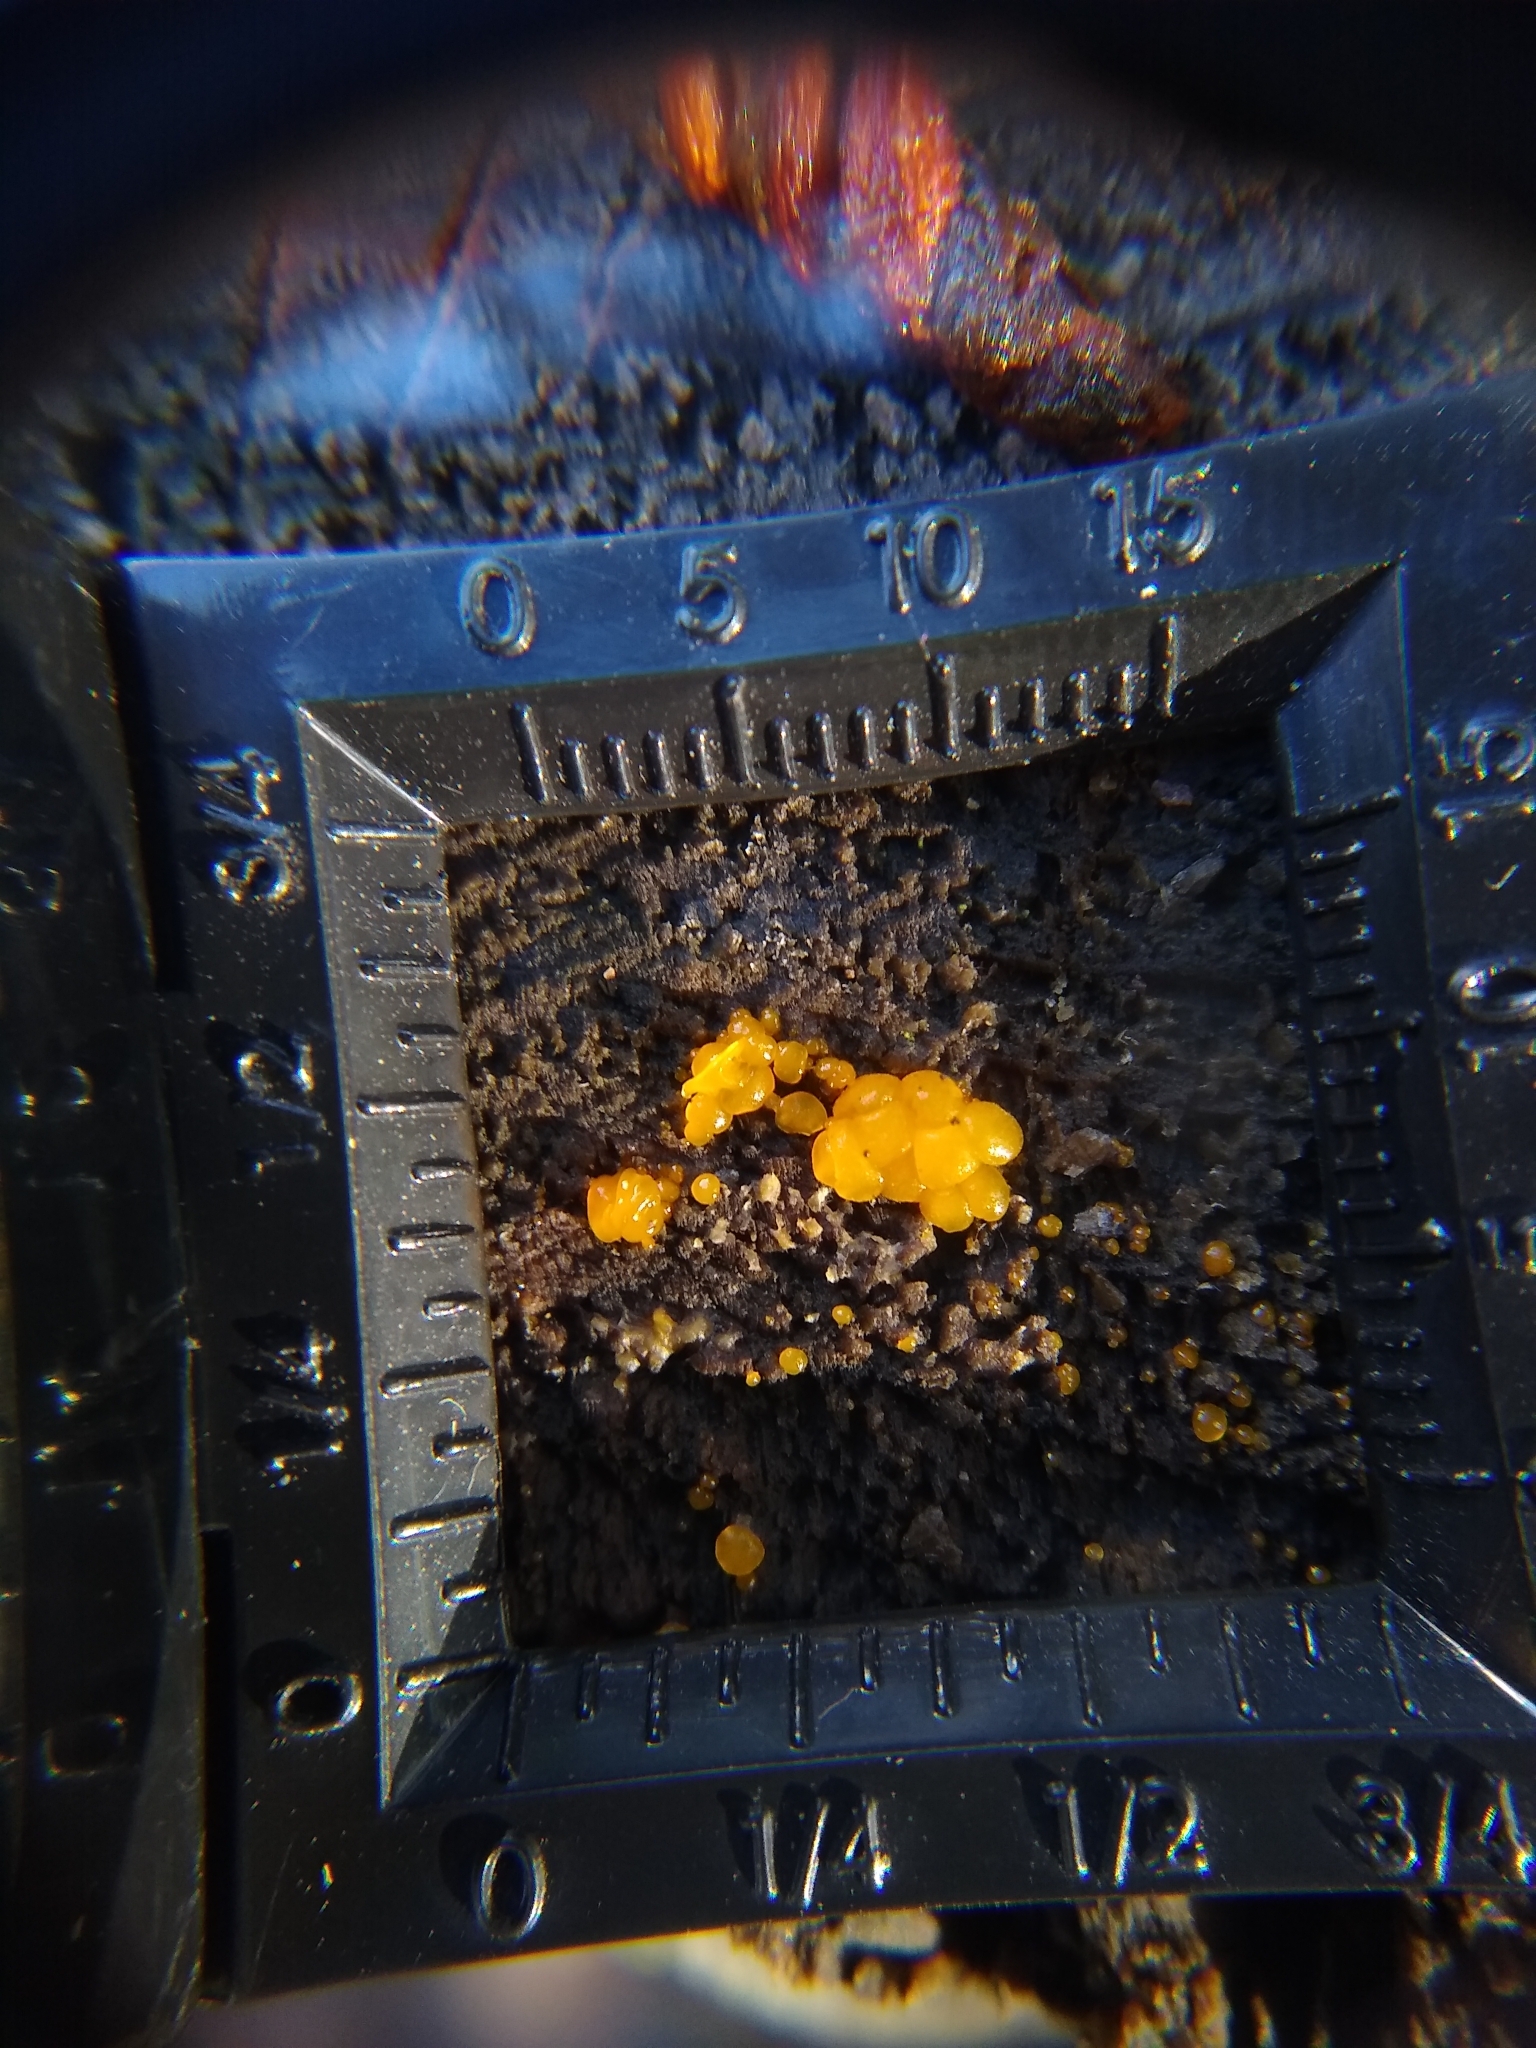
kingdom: Fungi
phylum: Ascomycota
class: Leotiomycetes
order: Helotiales
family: Pezizellaceae
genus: Calycina
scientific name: Calycina citrina
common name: Yellow fairy cups
